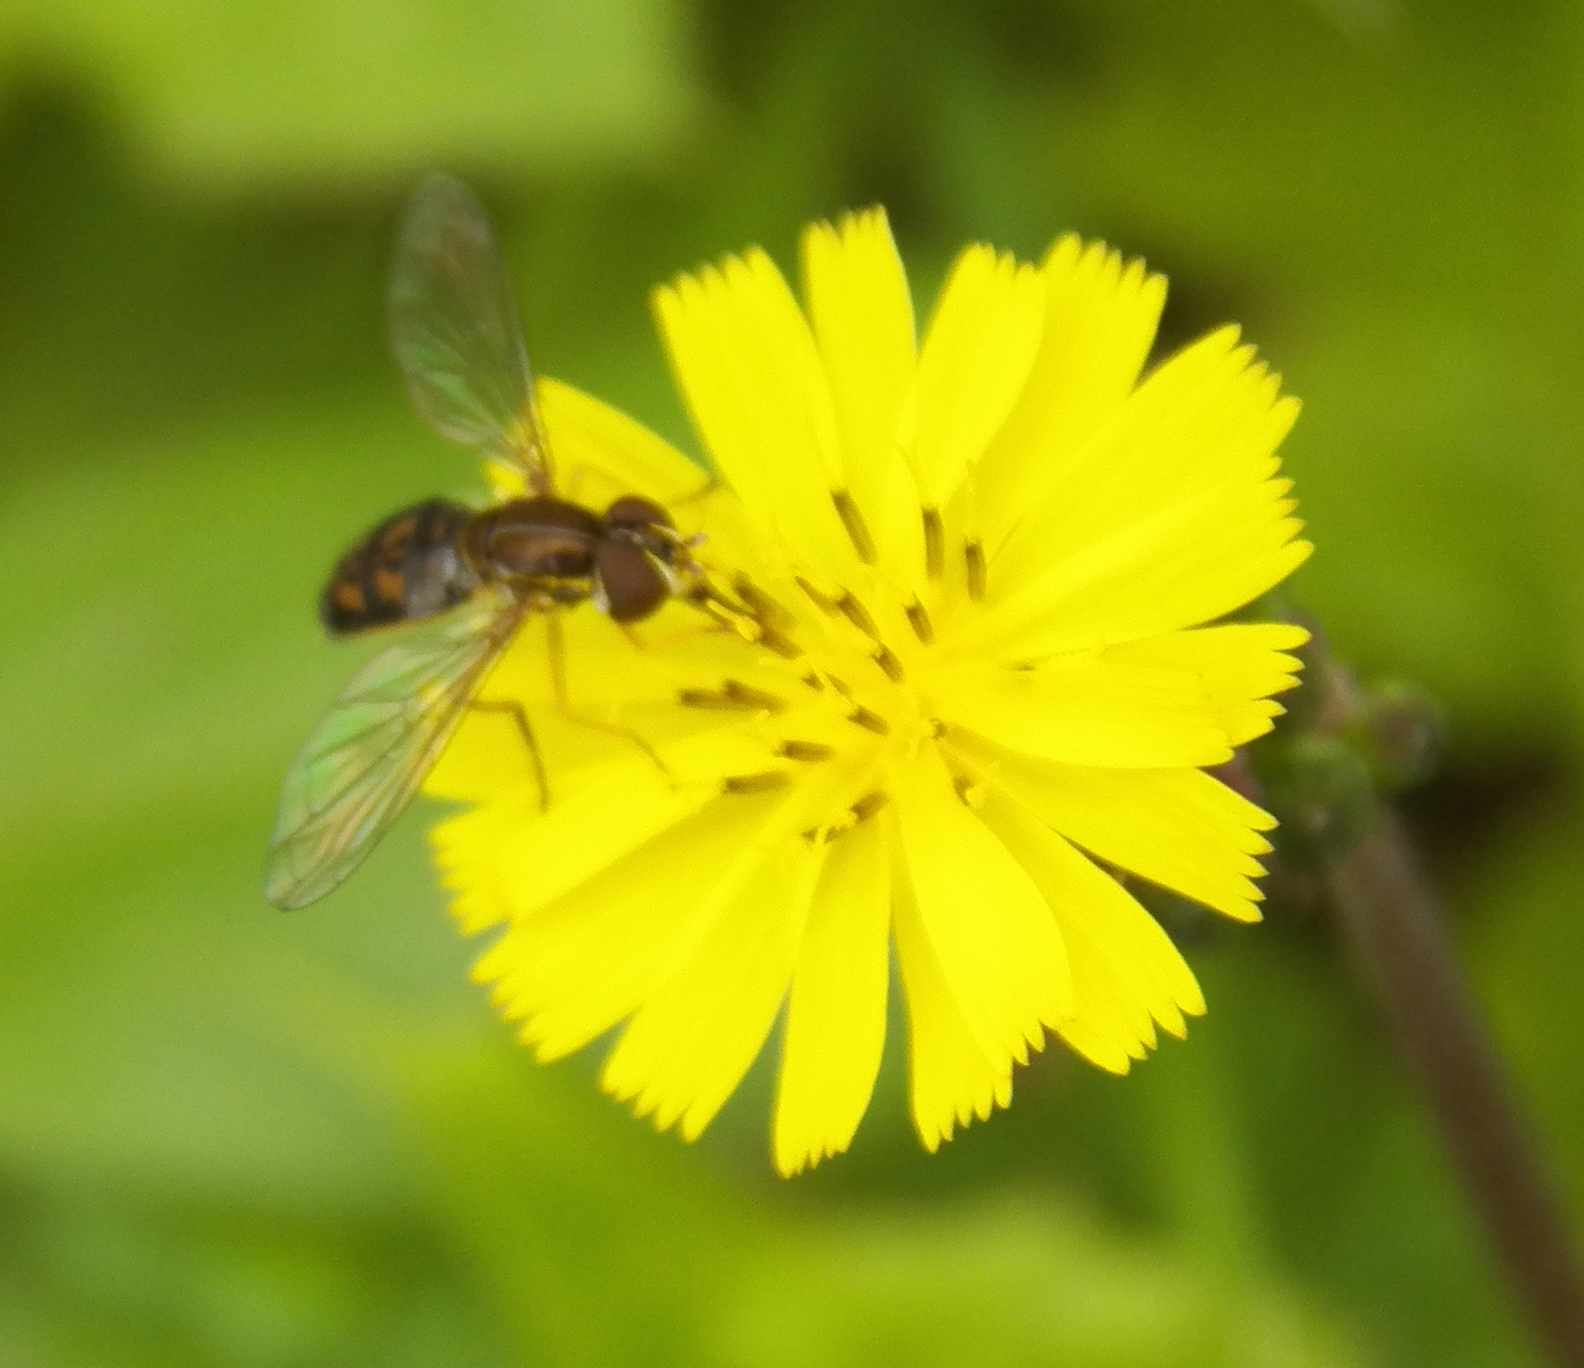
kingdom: Animalia
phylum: Arthropoda
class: Insecta
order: Diptera
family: Syrphidae
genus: Toxomerus
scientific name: Toxomerus marginatus
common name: Syrphid fly
